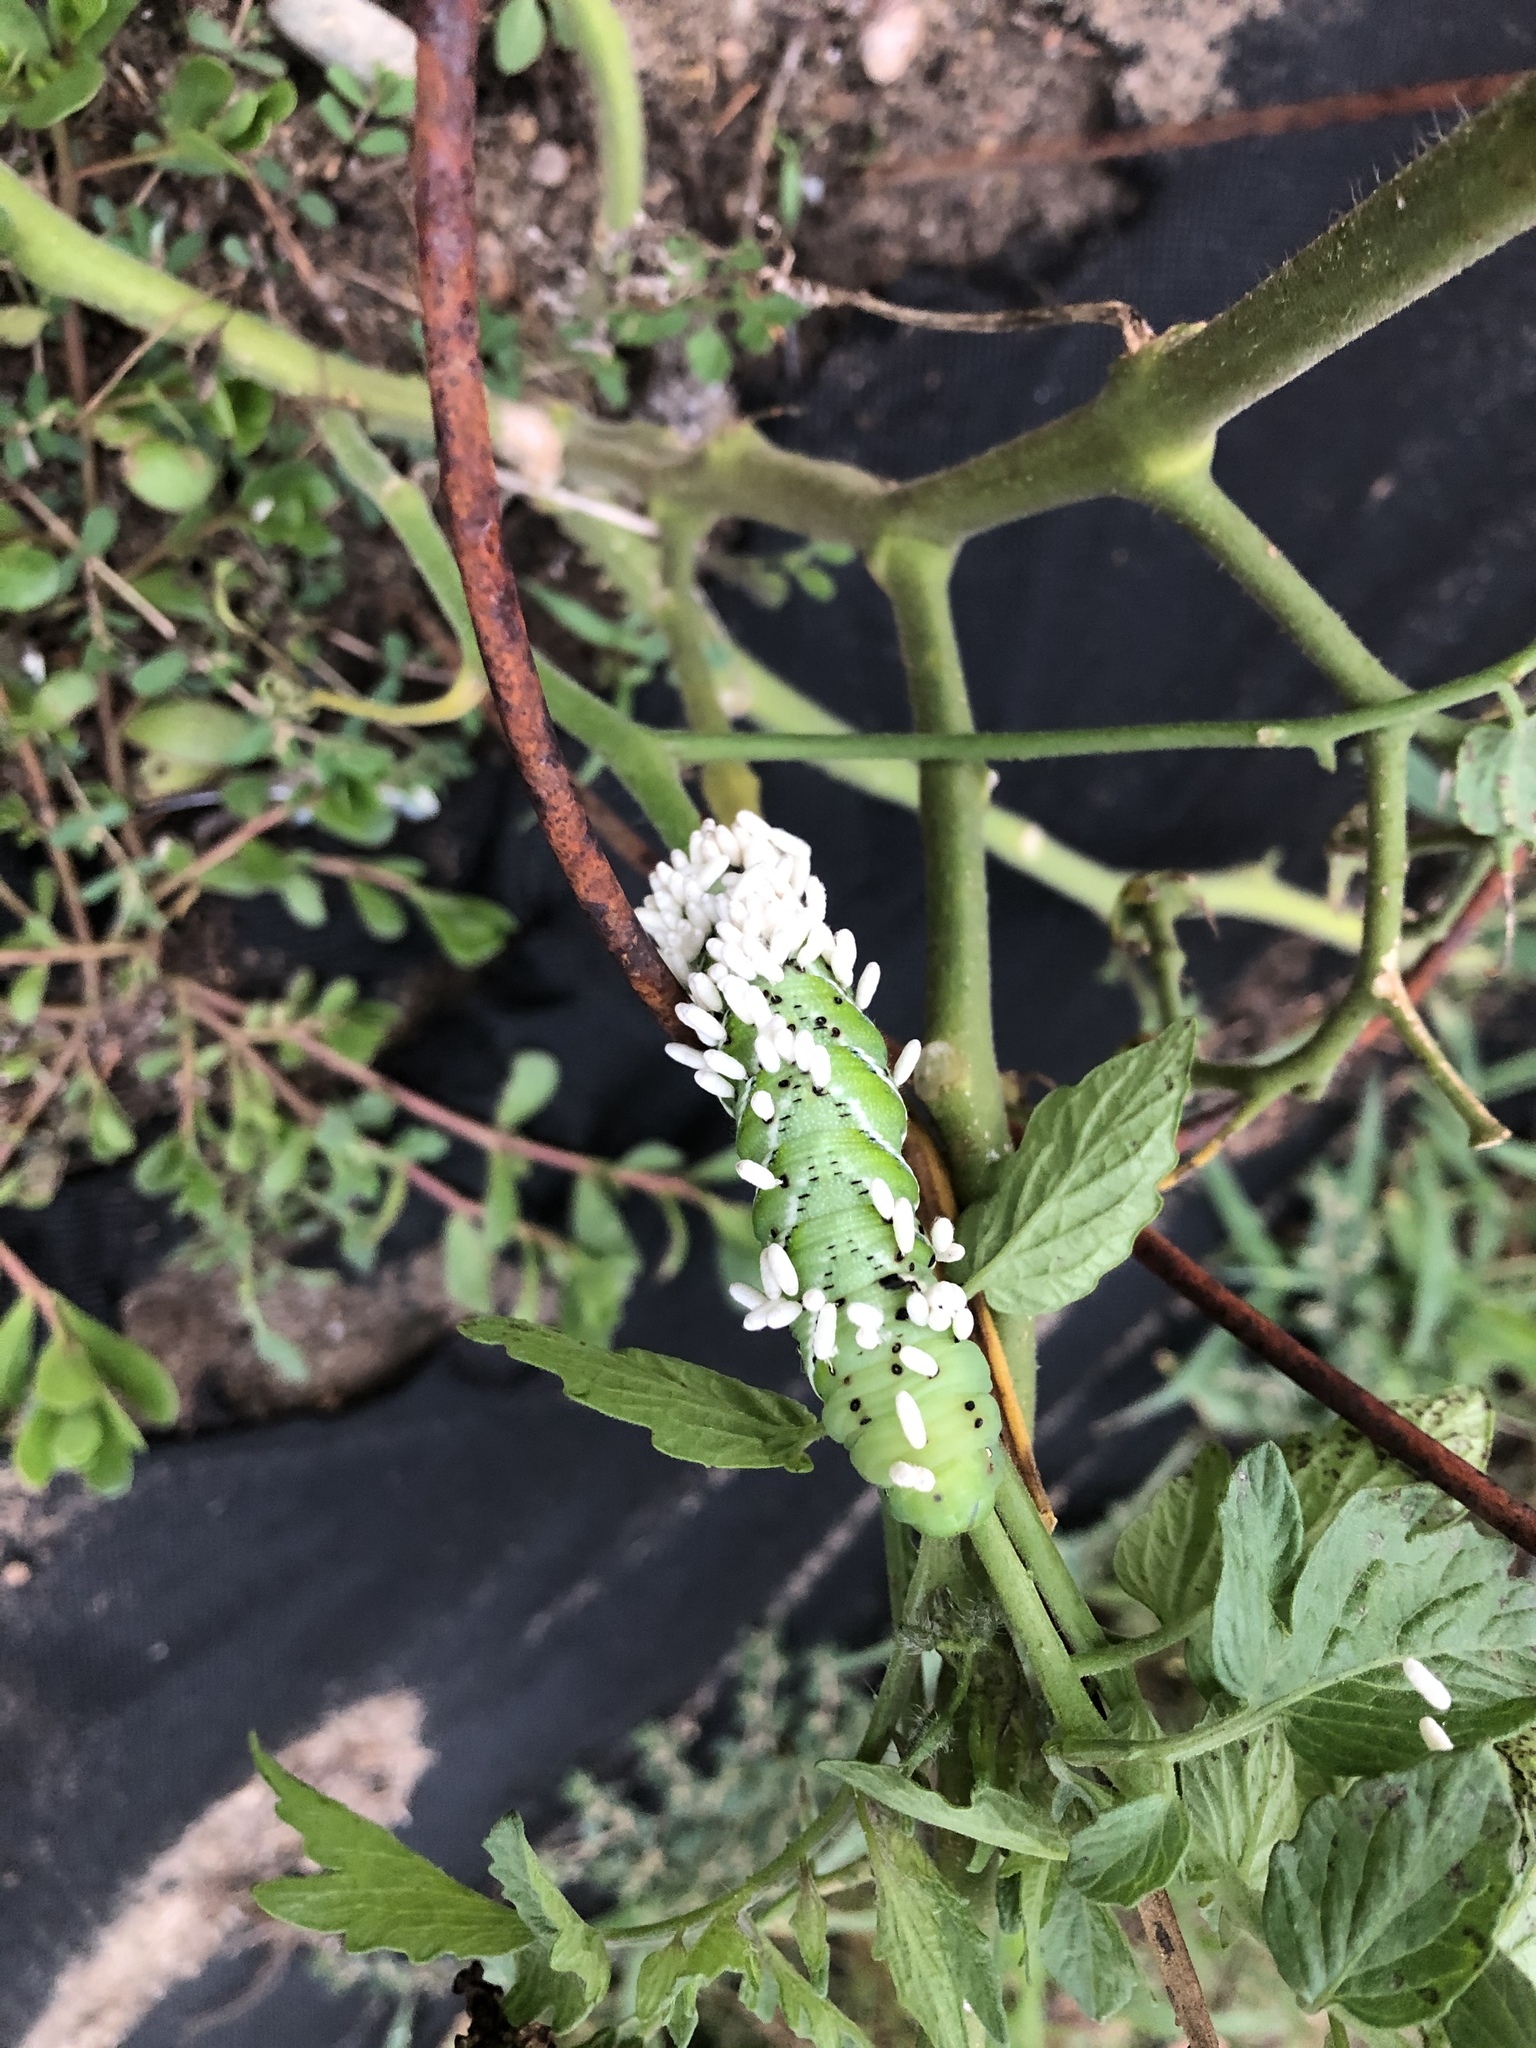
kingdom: Animalia
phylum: Arthropoda
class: Insecta
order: Hymenoptera
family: Braconidae
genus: Cotesia
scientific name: Cotesia congregata
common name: Hornworm parasitoid wasp
